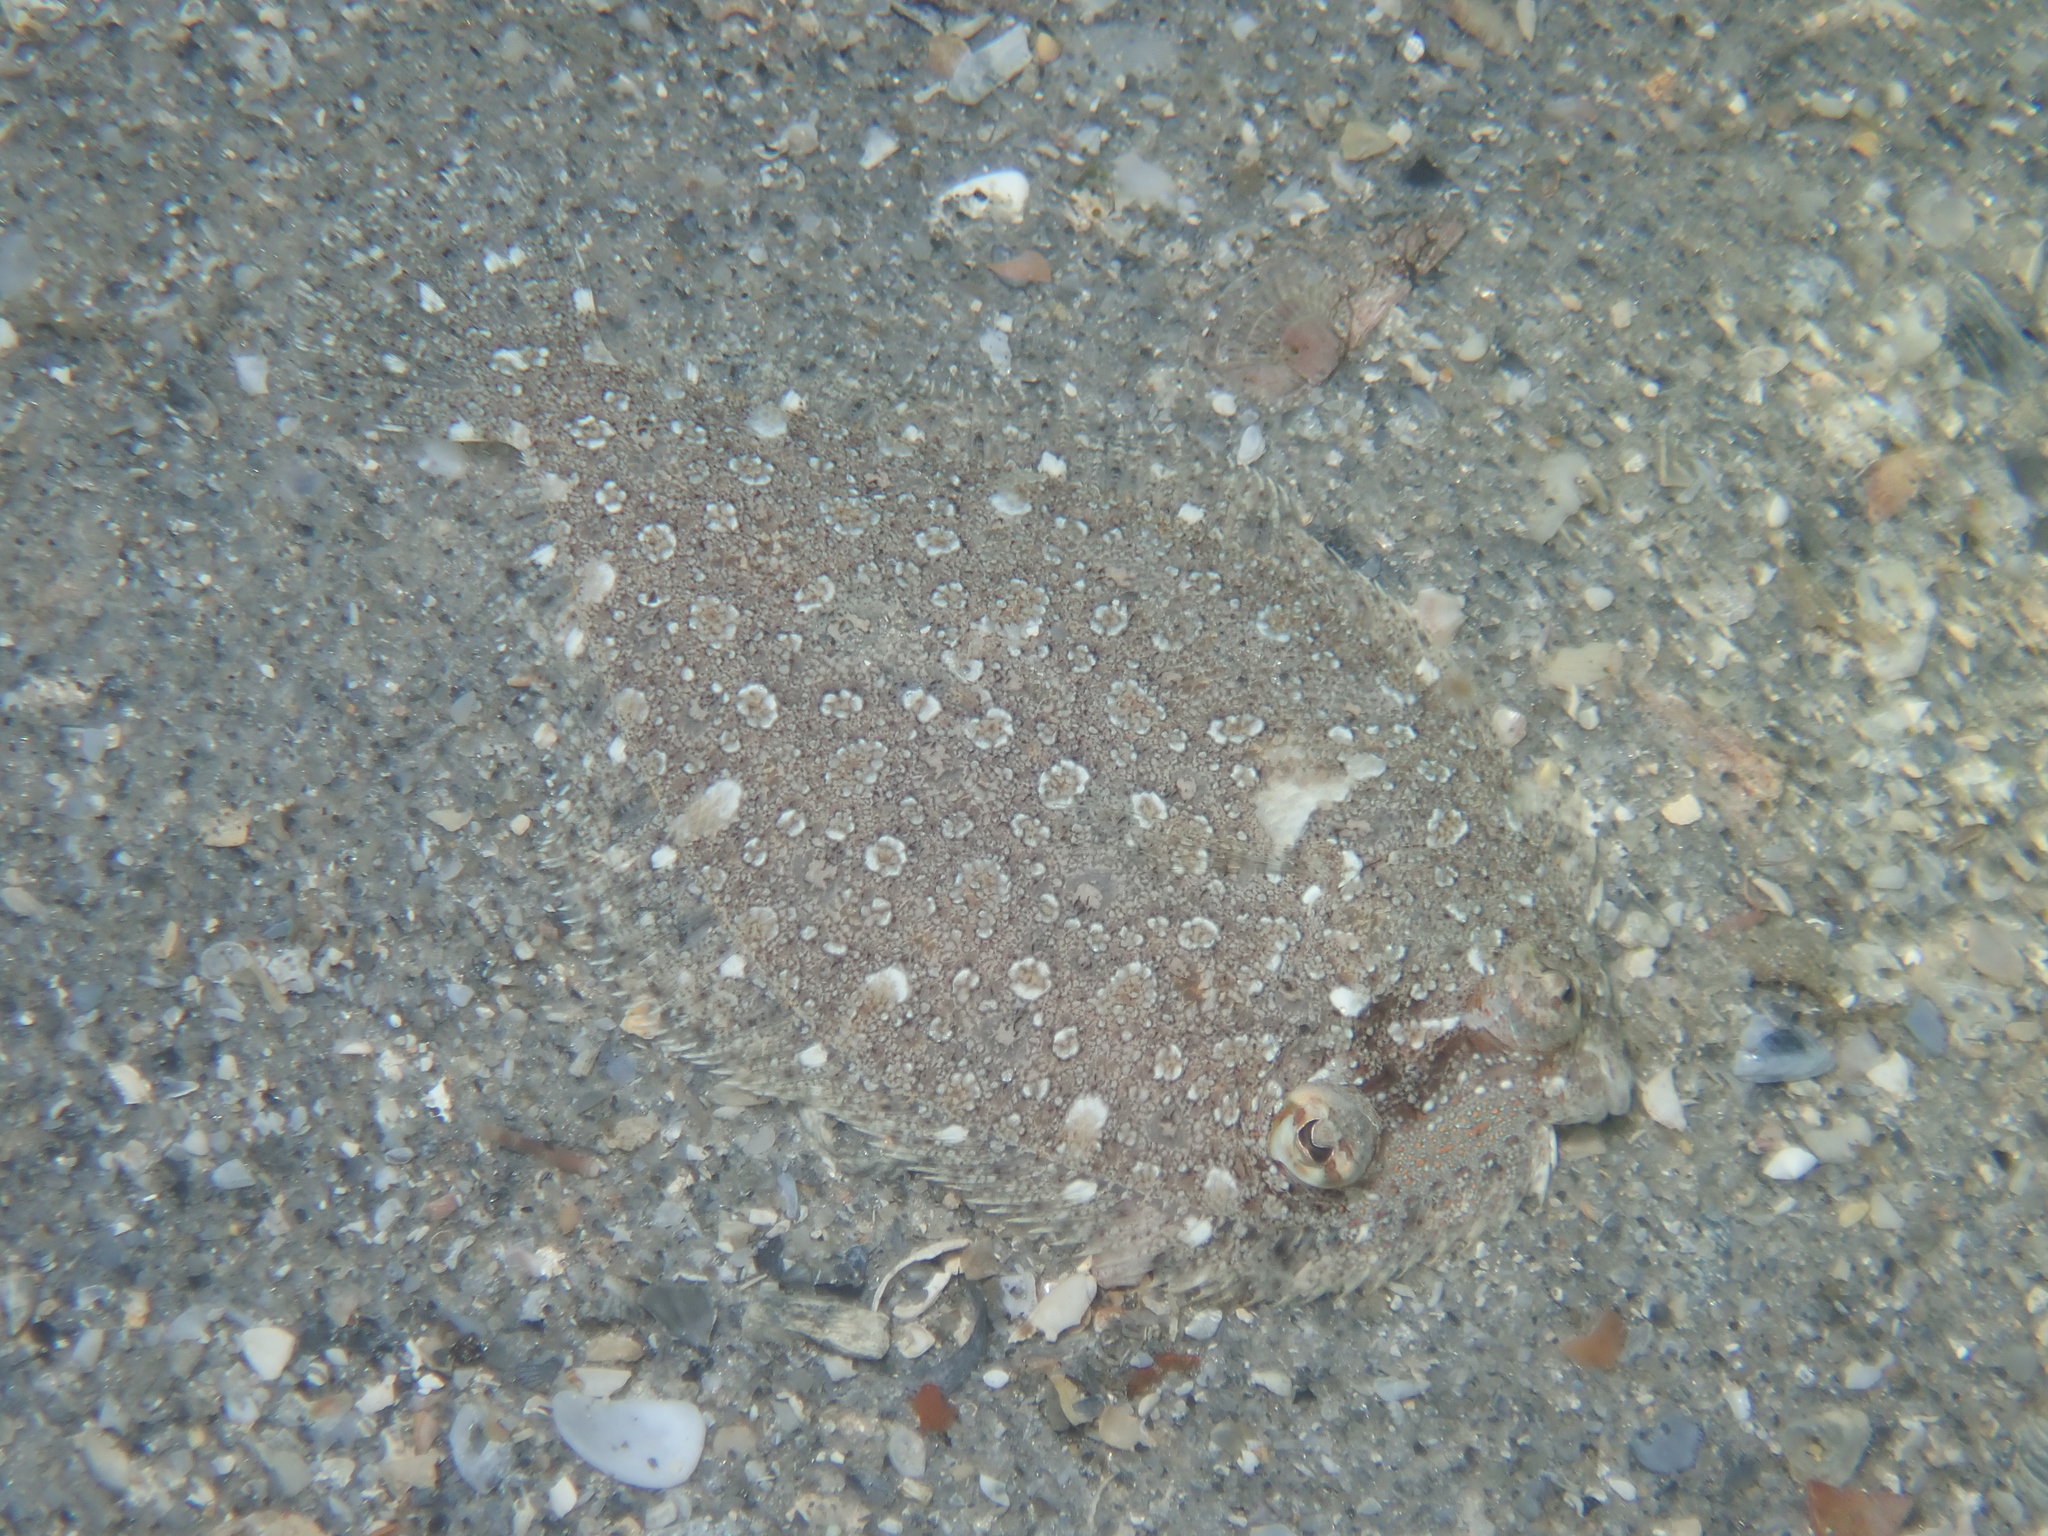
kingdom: Animalia
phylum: Chordata
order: Pleuronectiformes
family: Bothidae
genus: Bothus
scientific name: Bothus ocellatus
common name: Eyed flounder
